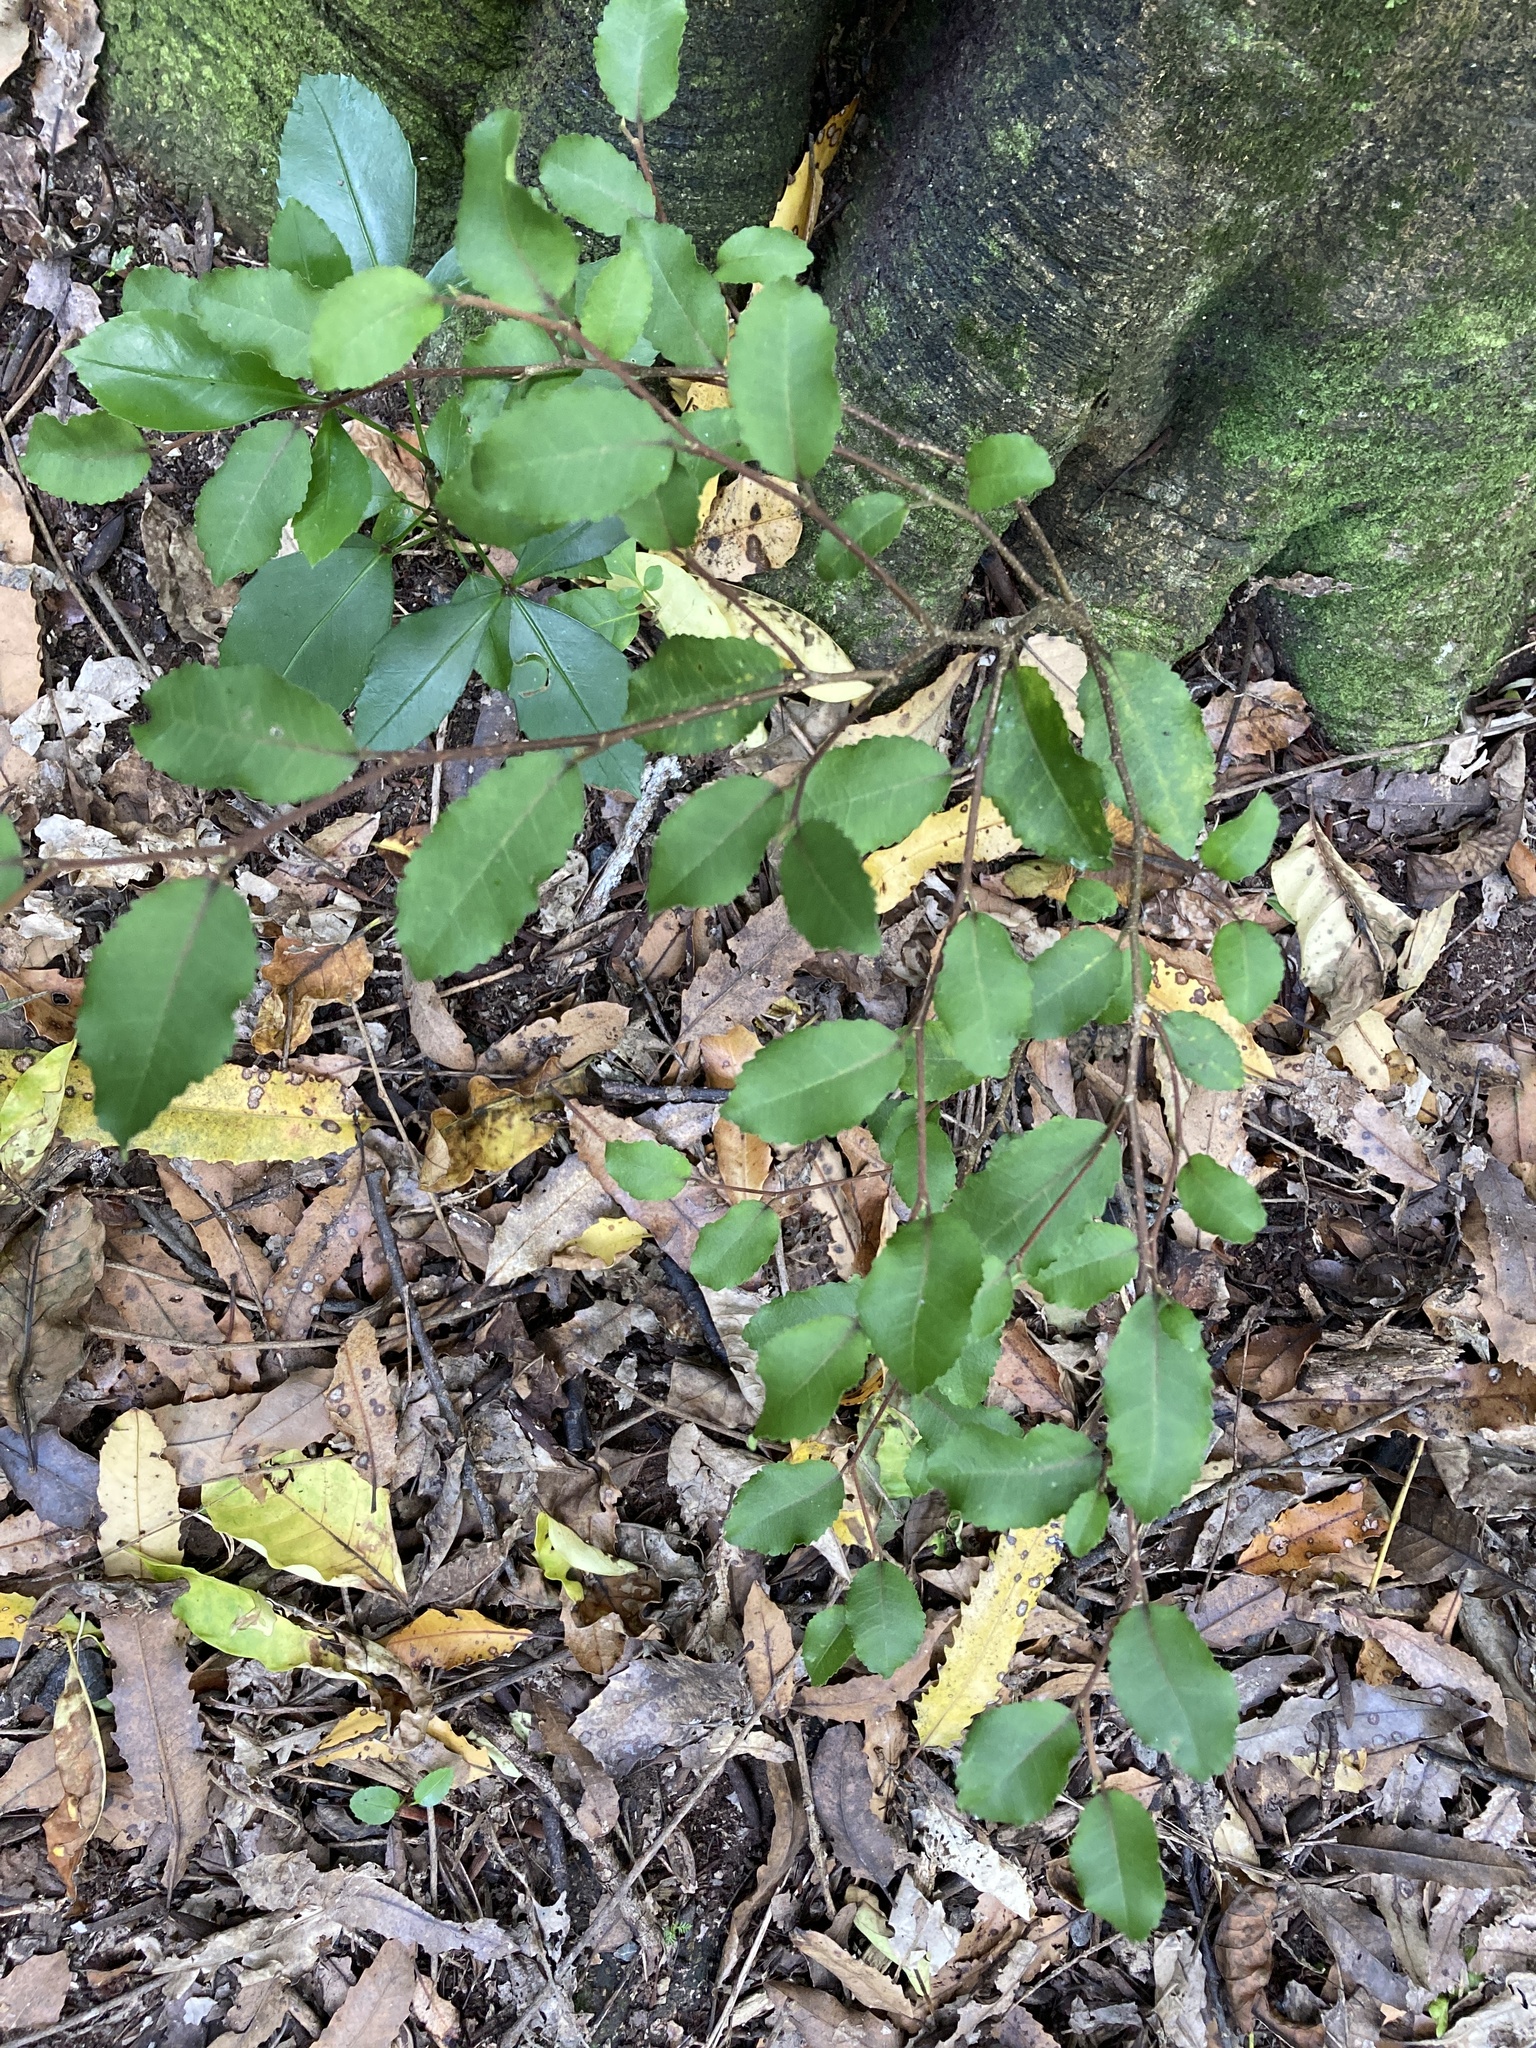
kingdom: Plantae
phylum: Tracheophyta
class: Magnoliopsida
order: Rosales
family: Moraceae
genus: Paratrophis
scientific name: Paratrophis banksii
